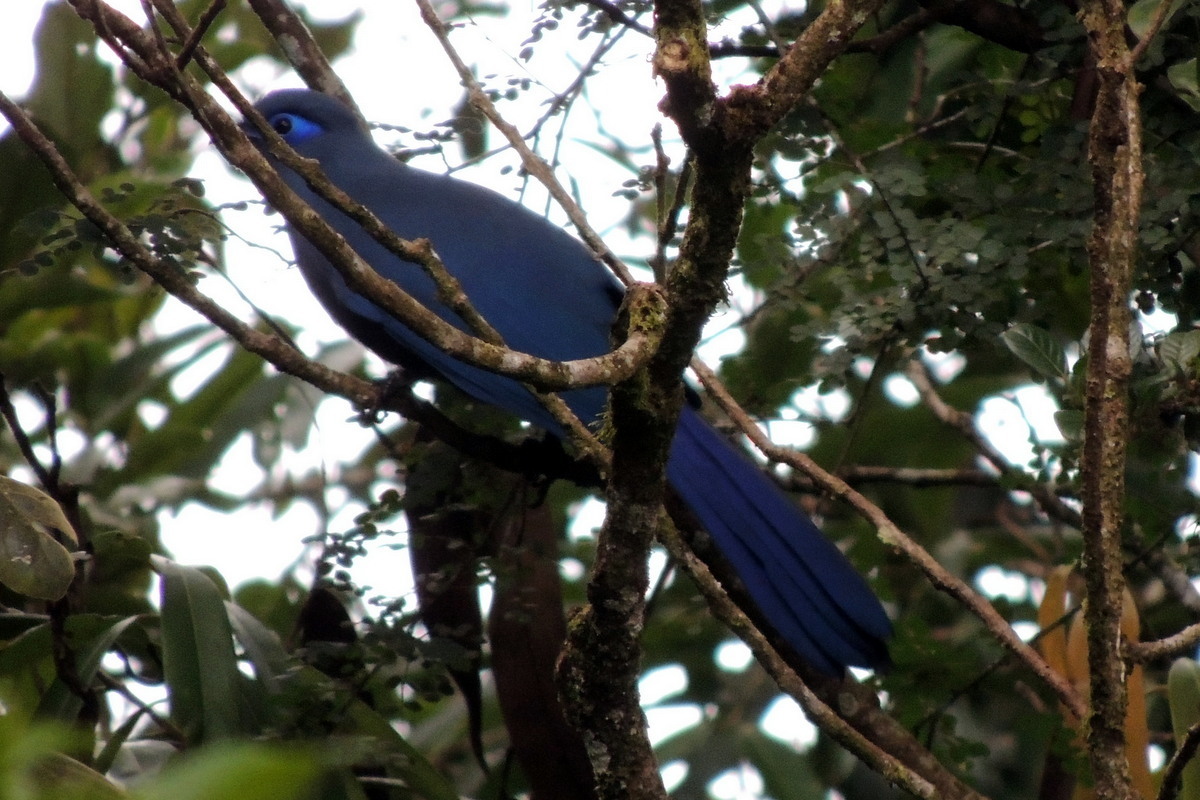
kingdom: Animalia
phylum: Chordata
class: Aves
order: Cuculiformes
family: Cuculidae
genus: Coua
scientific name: Coua caerulea
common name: Blue coua
